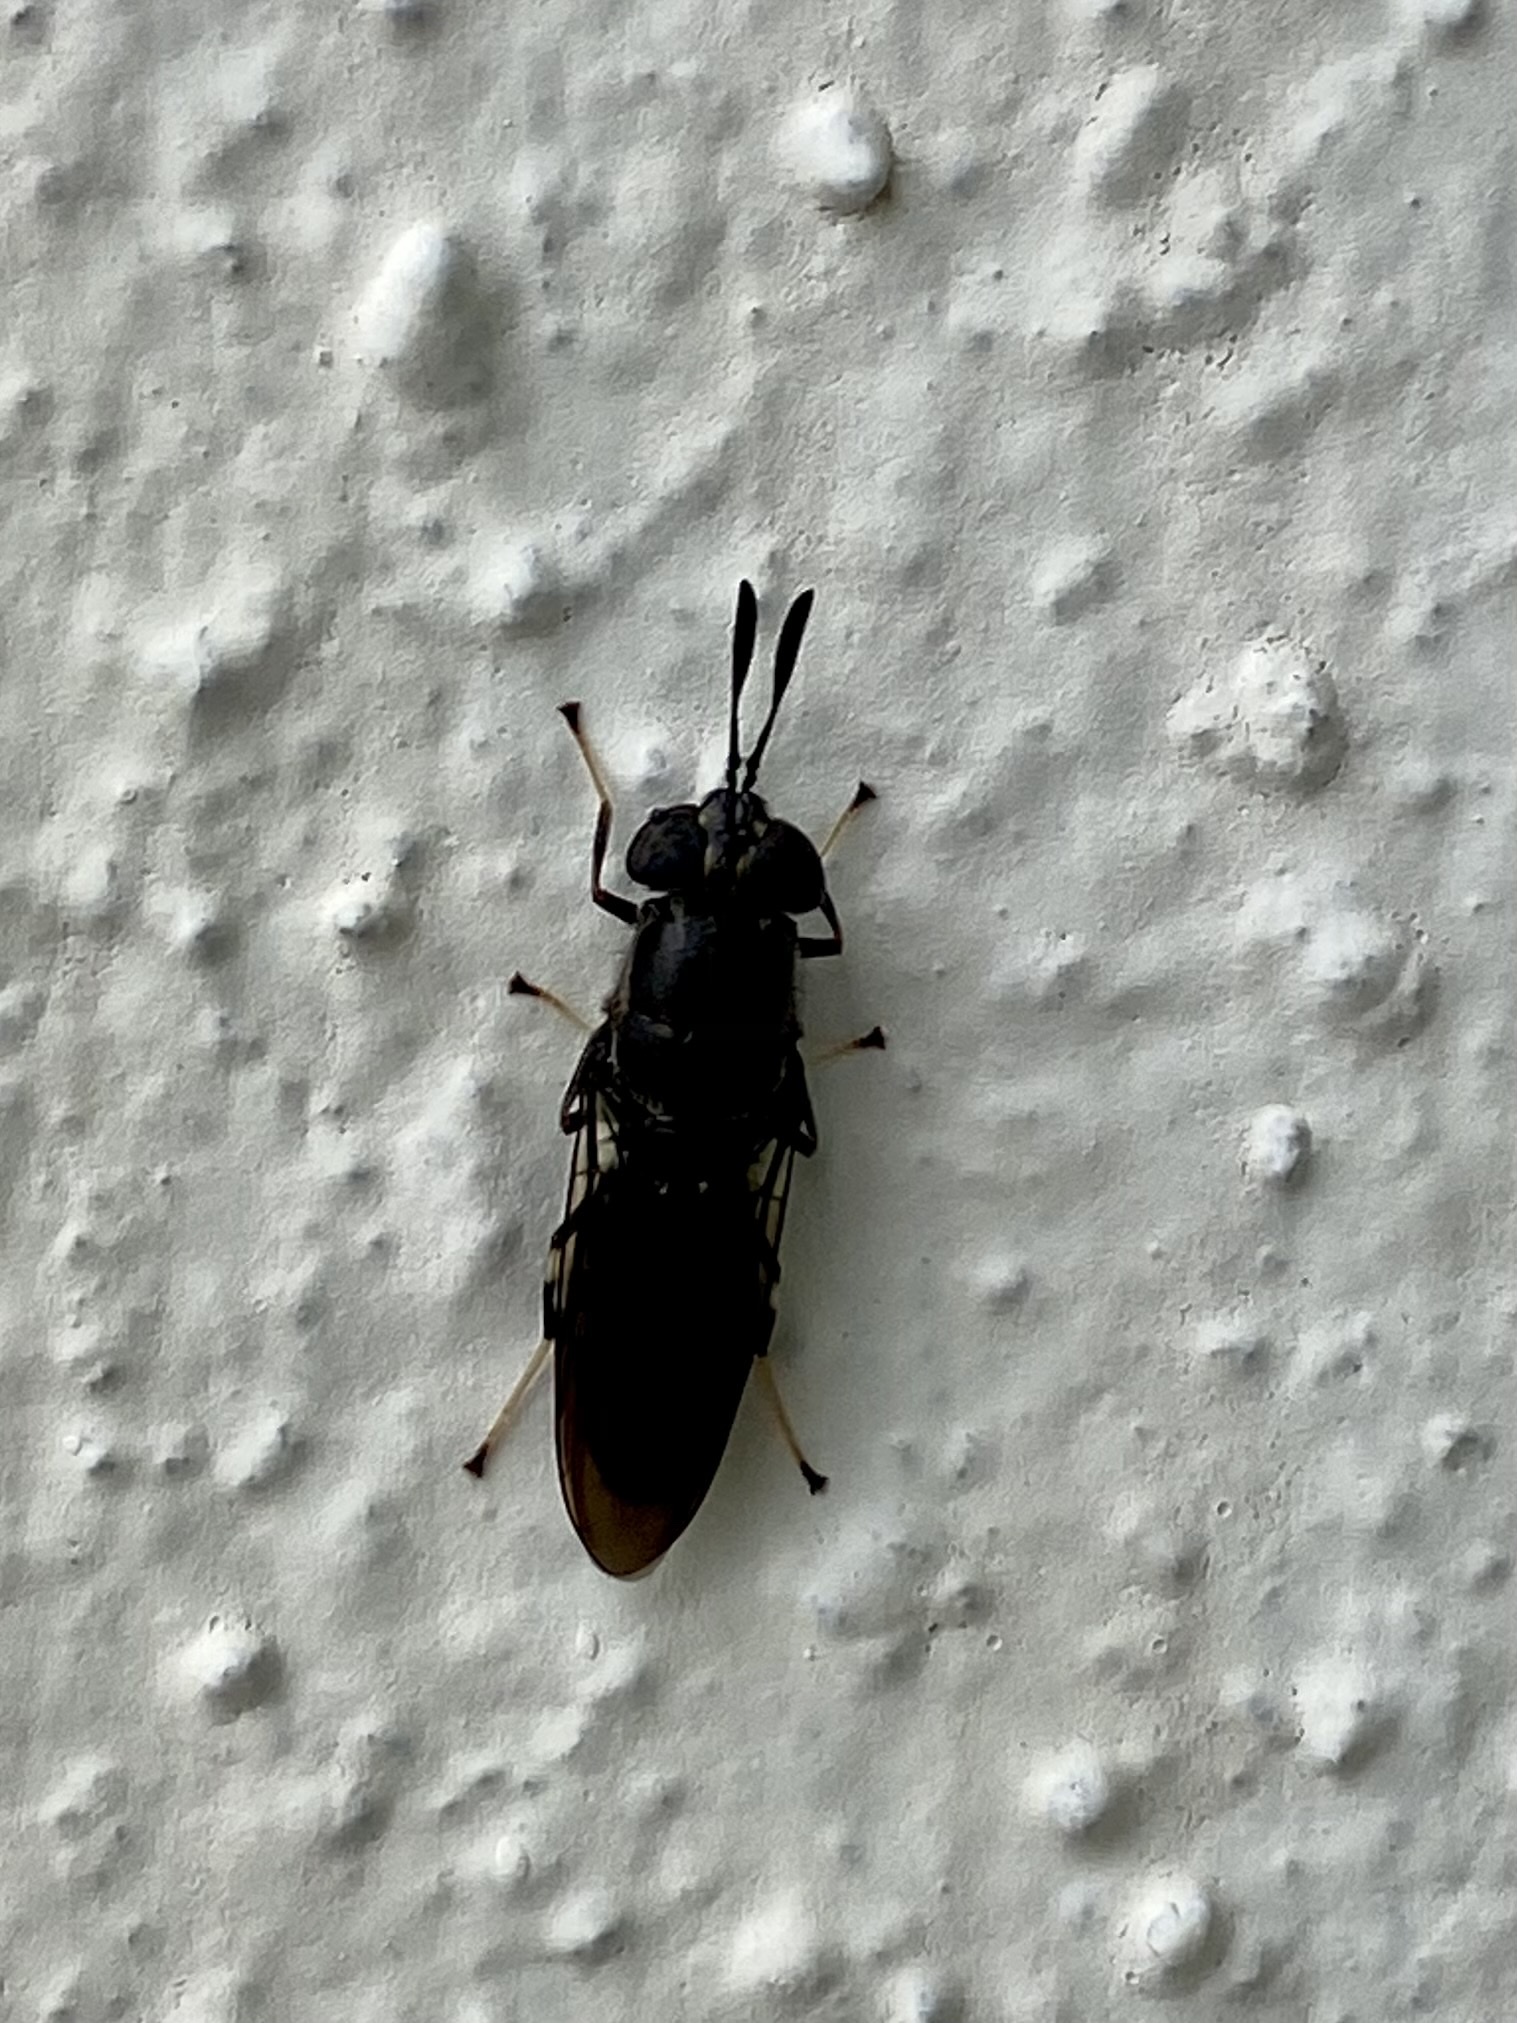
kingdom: Animalia
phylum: Arthropoda
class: Insecta
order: Diptera
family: Stratiomyidae
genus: Hermetia
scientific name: Hermetia sexmaculata
